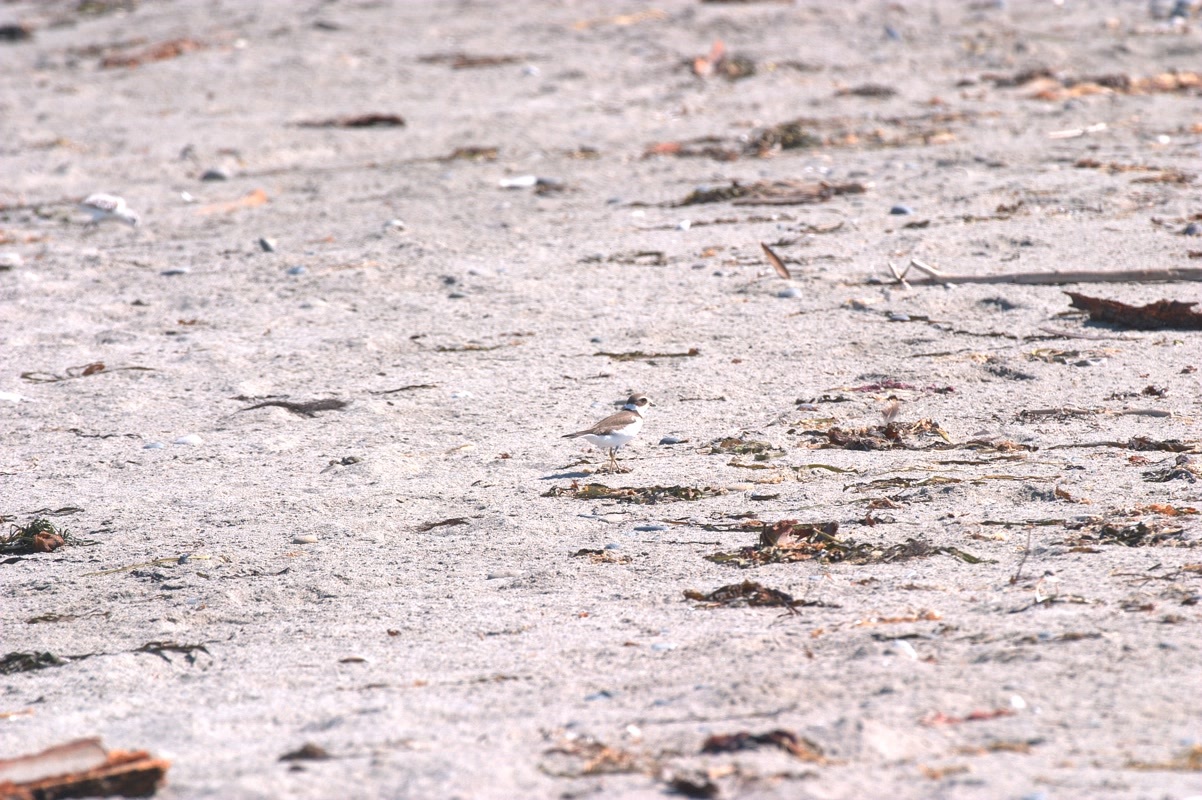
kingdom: Animalia
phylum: Chordata
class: Aves
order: Charadriiformes
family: Charadriidae
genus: Charadrius
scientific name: Charadrius semipalmatus
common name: Semipalmated plover
